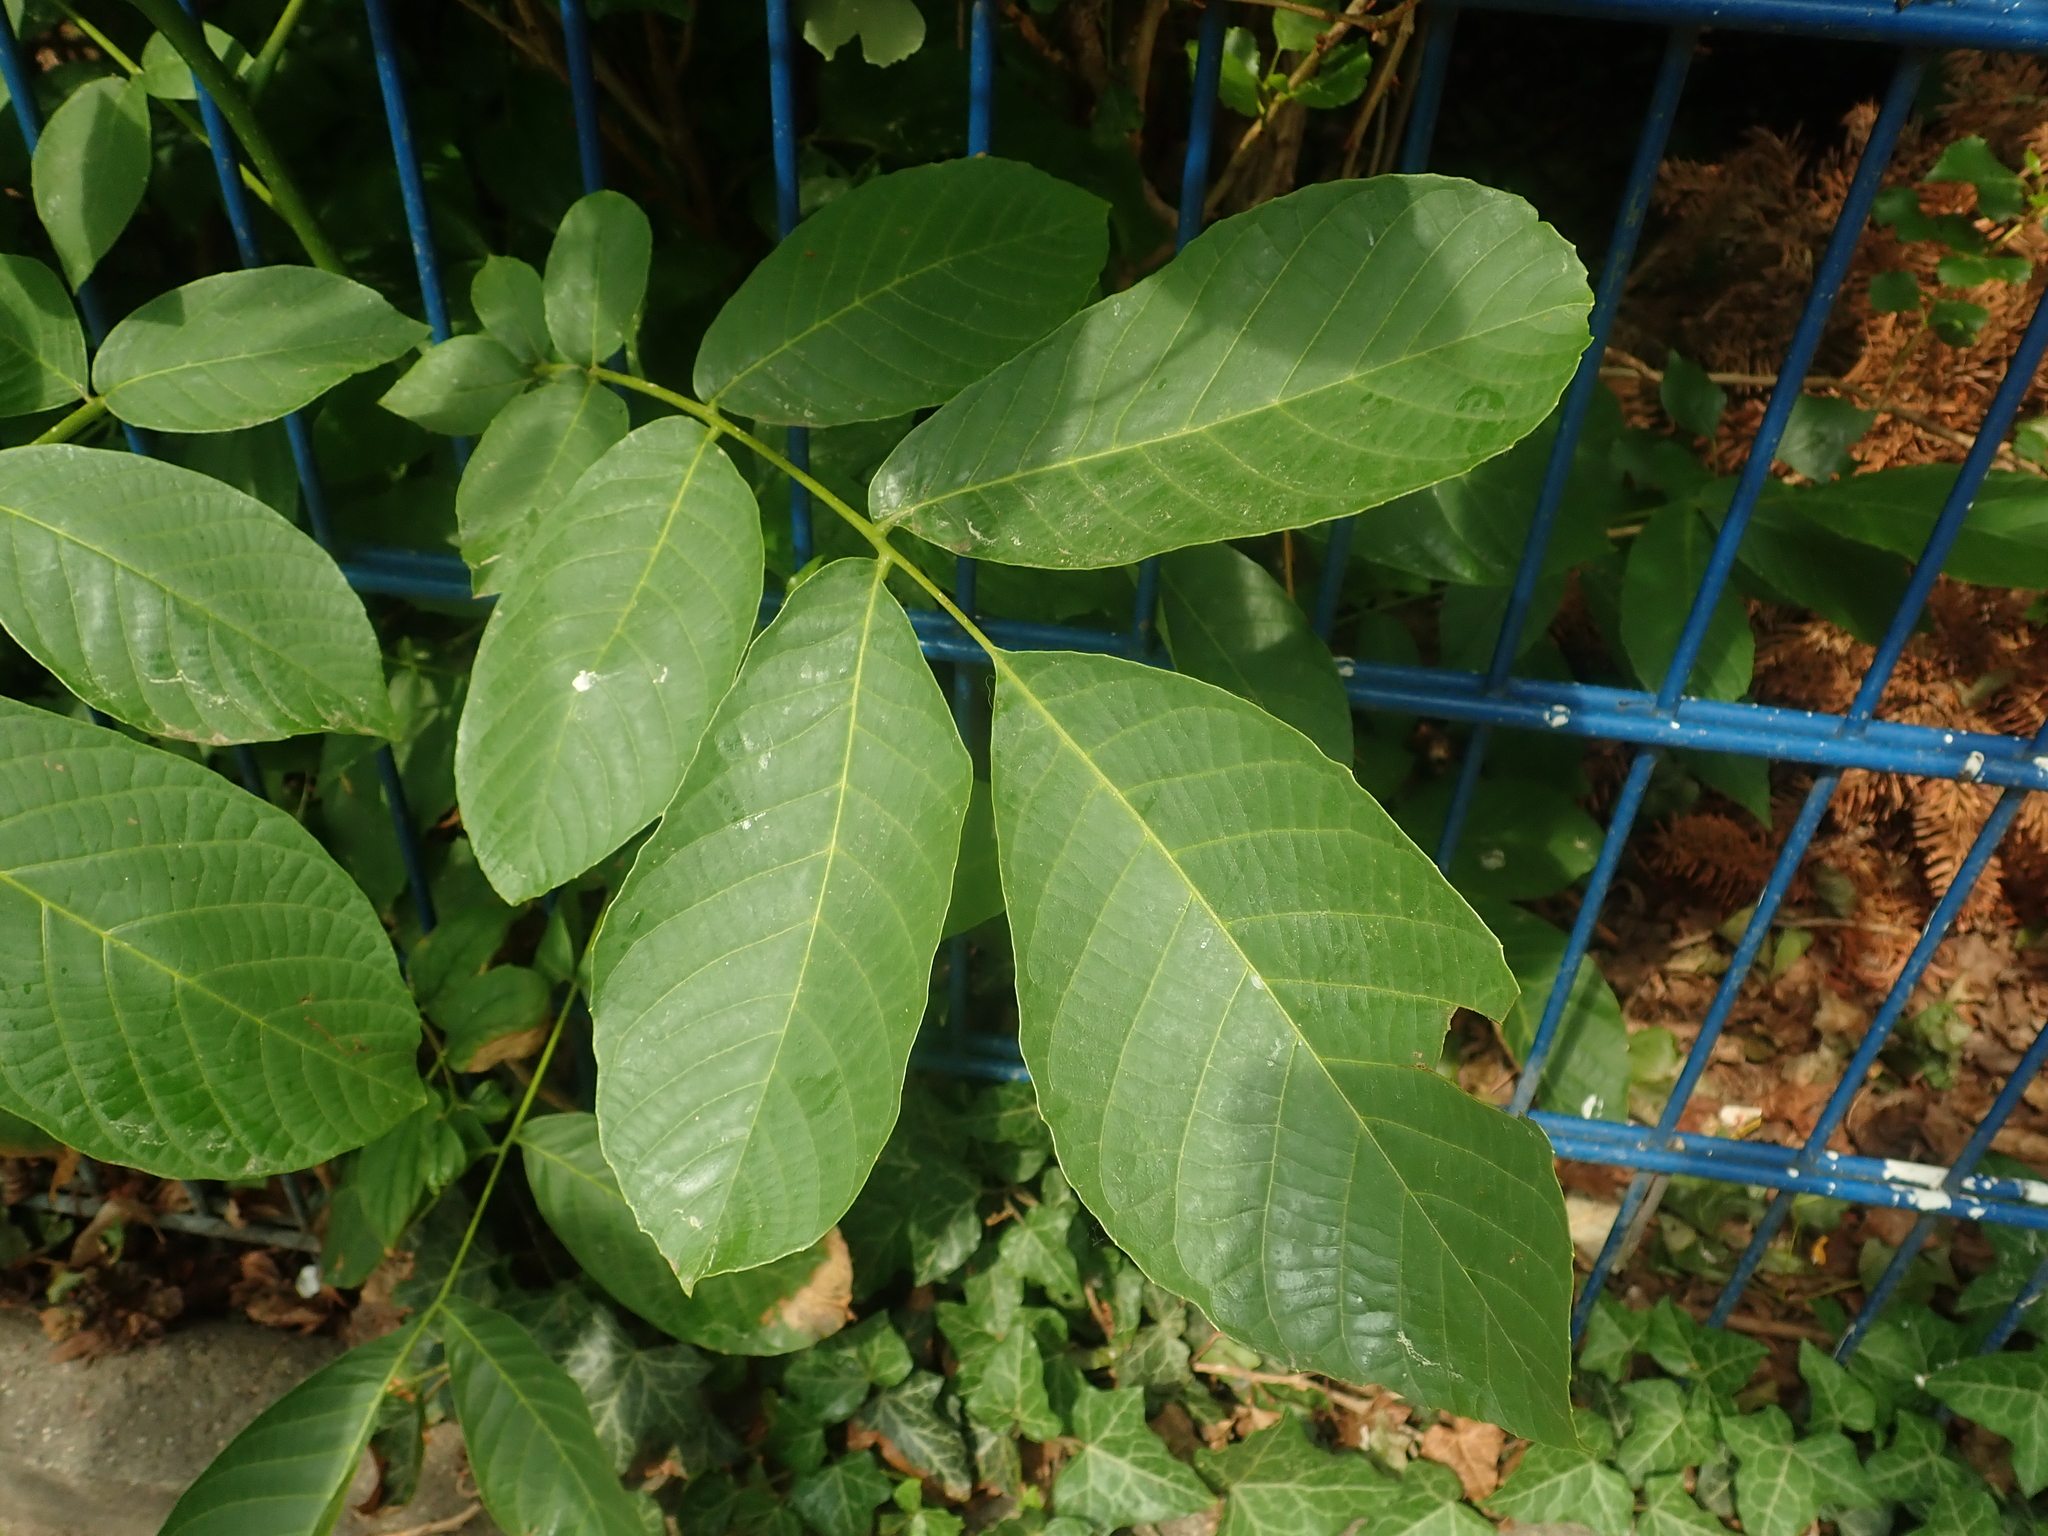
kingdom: Plantae
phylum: Tracheophyta
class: Magnoliopsida
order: Fagales
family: Juglandaceae
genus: Juglans
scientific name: Juglans regia
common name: Walnut
